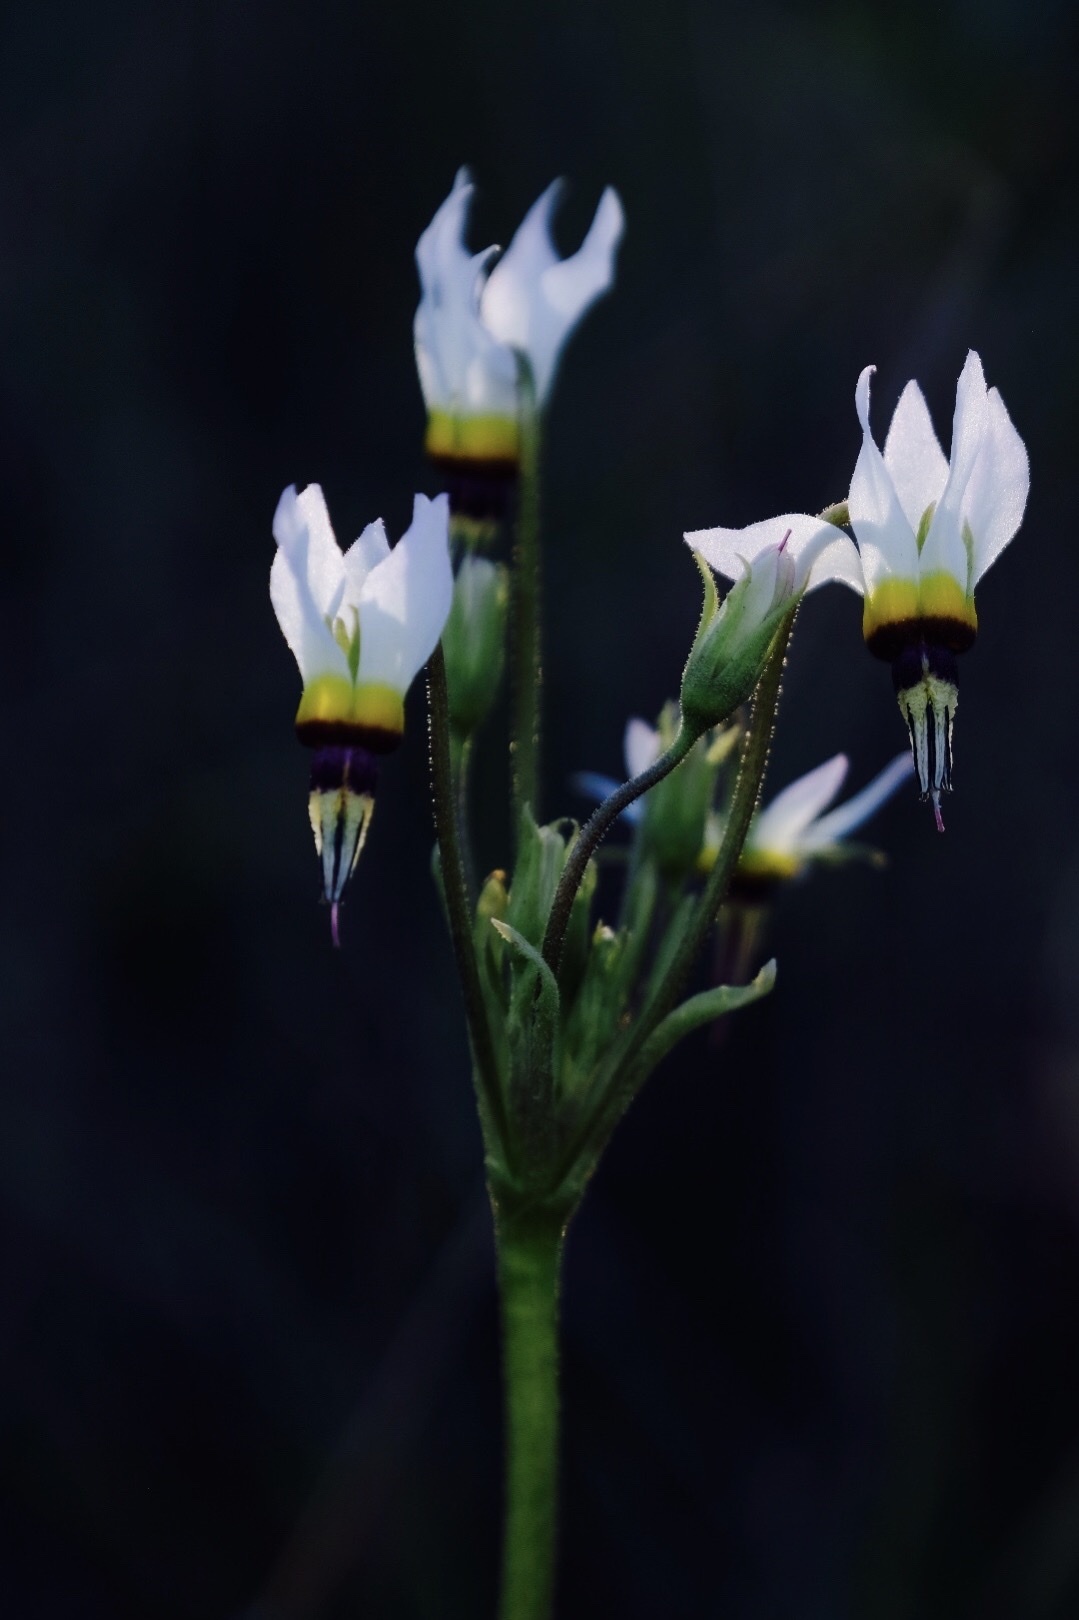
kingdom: Plantae
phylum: Tracheophyta
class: Magnoliopsida
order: Ericales
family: Primulaceae
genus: Dodecatheon
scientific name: Dodecatheon clevelandii
